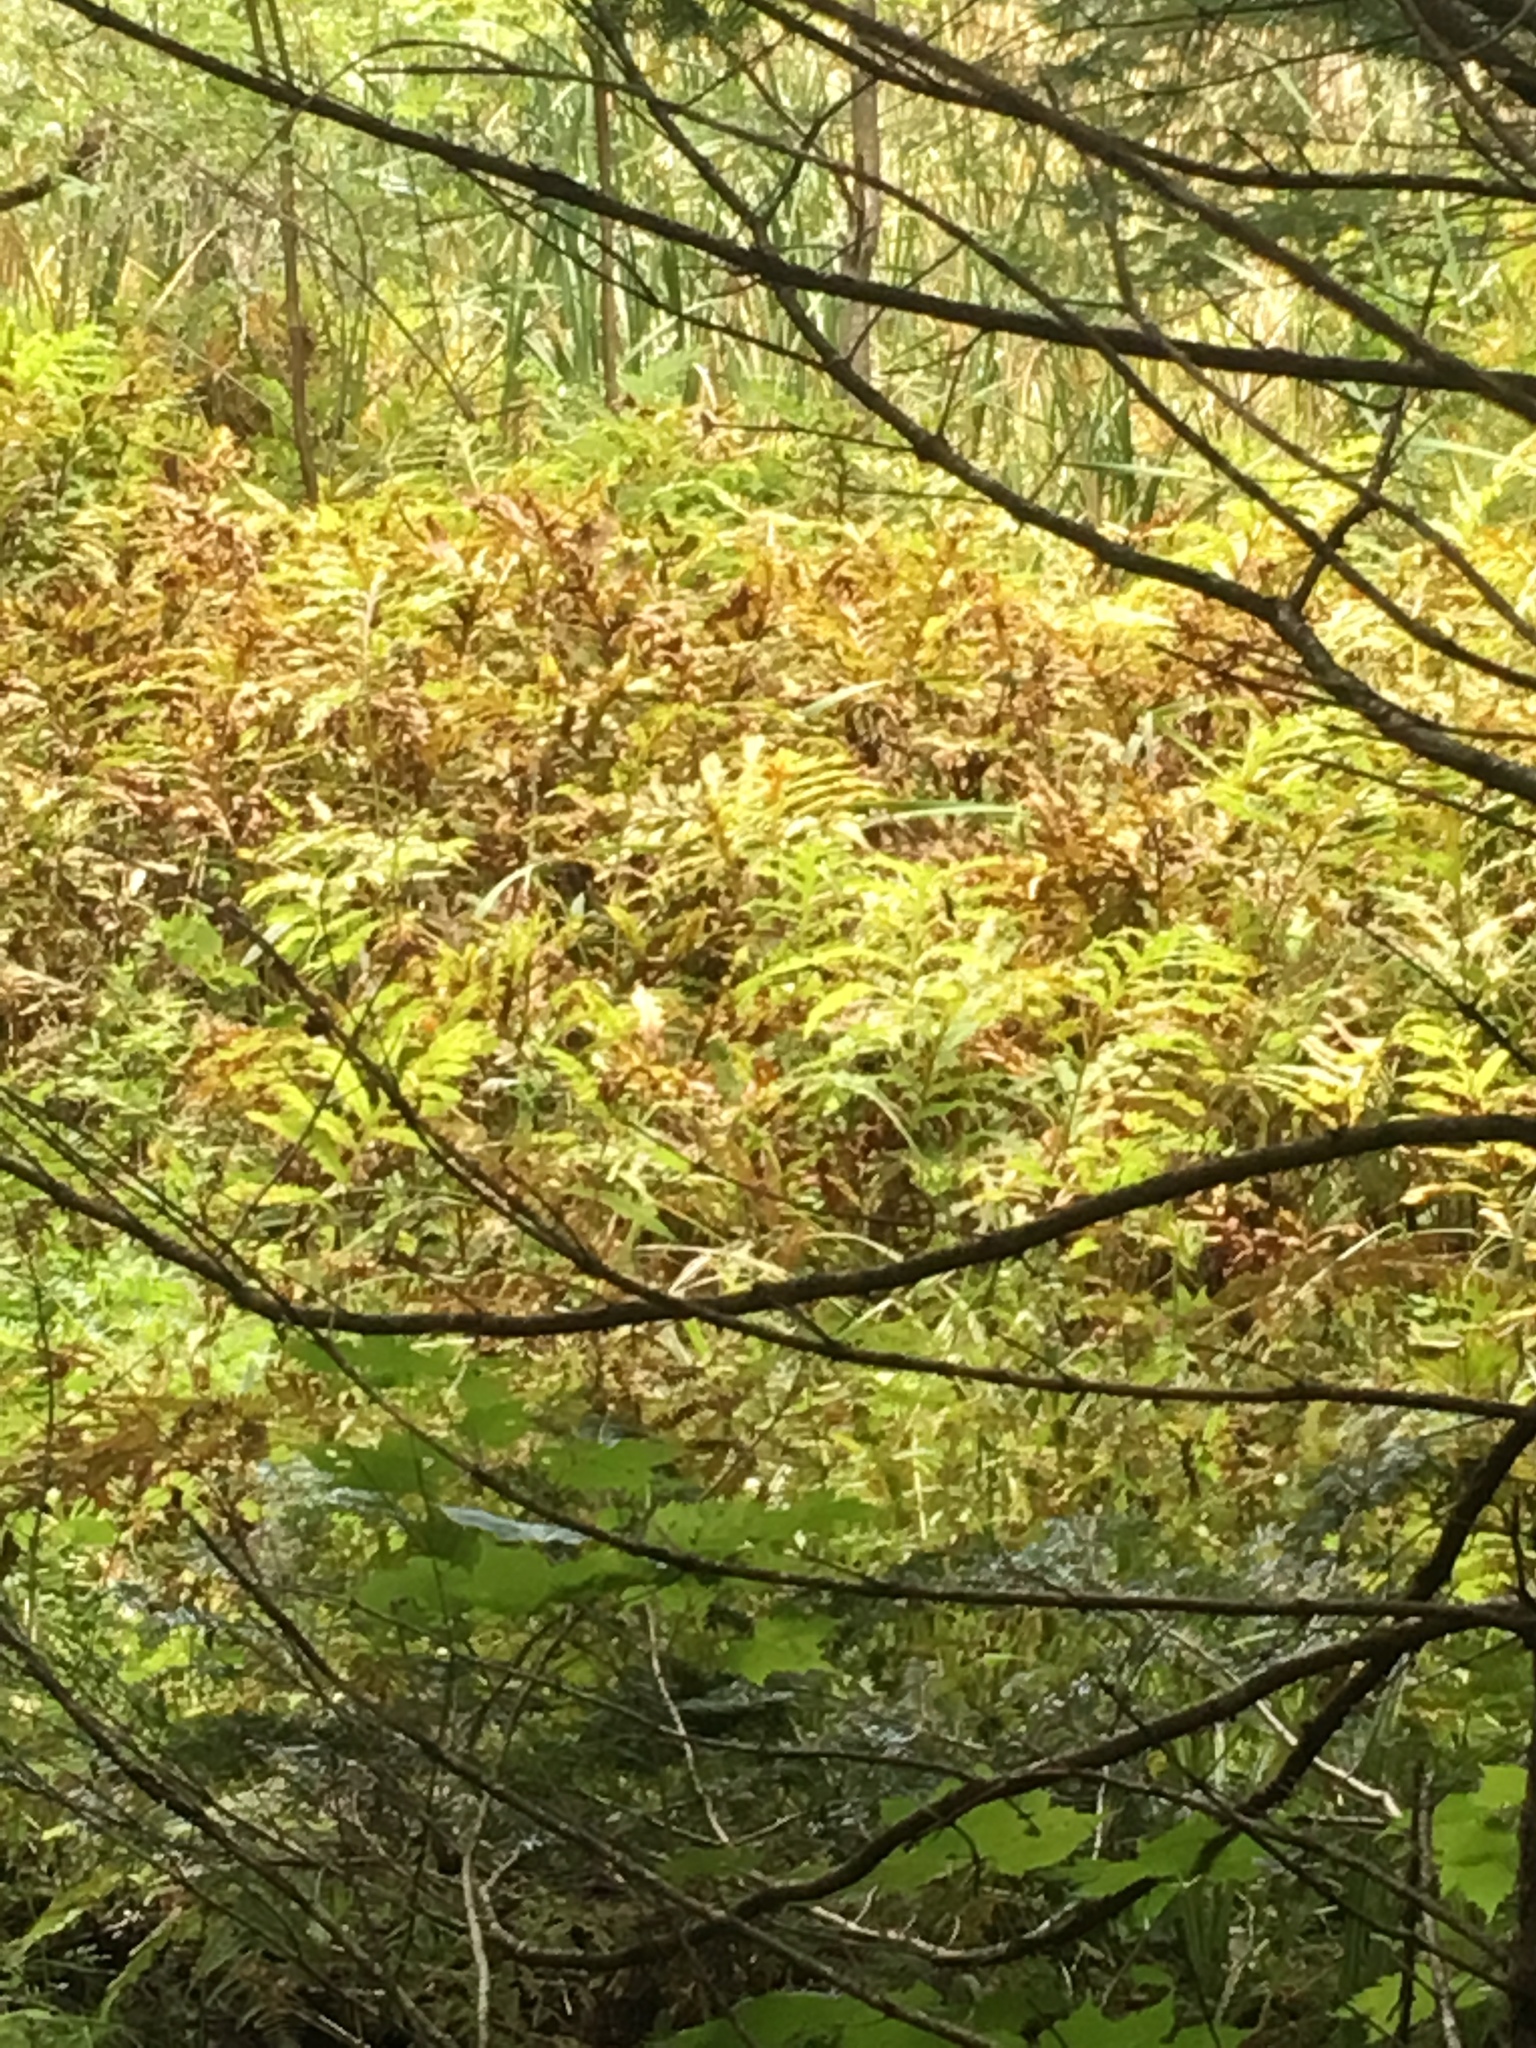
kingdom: Plantae
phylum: Tracheophyta
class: Polypodiopsida
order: Polypodiales
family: Onocleaceae
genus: Onoclea
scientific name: Onoclea sensibilis
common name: Sensitive fern
